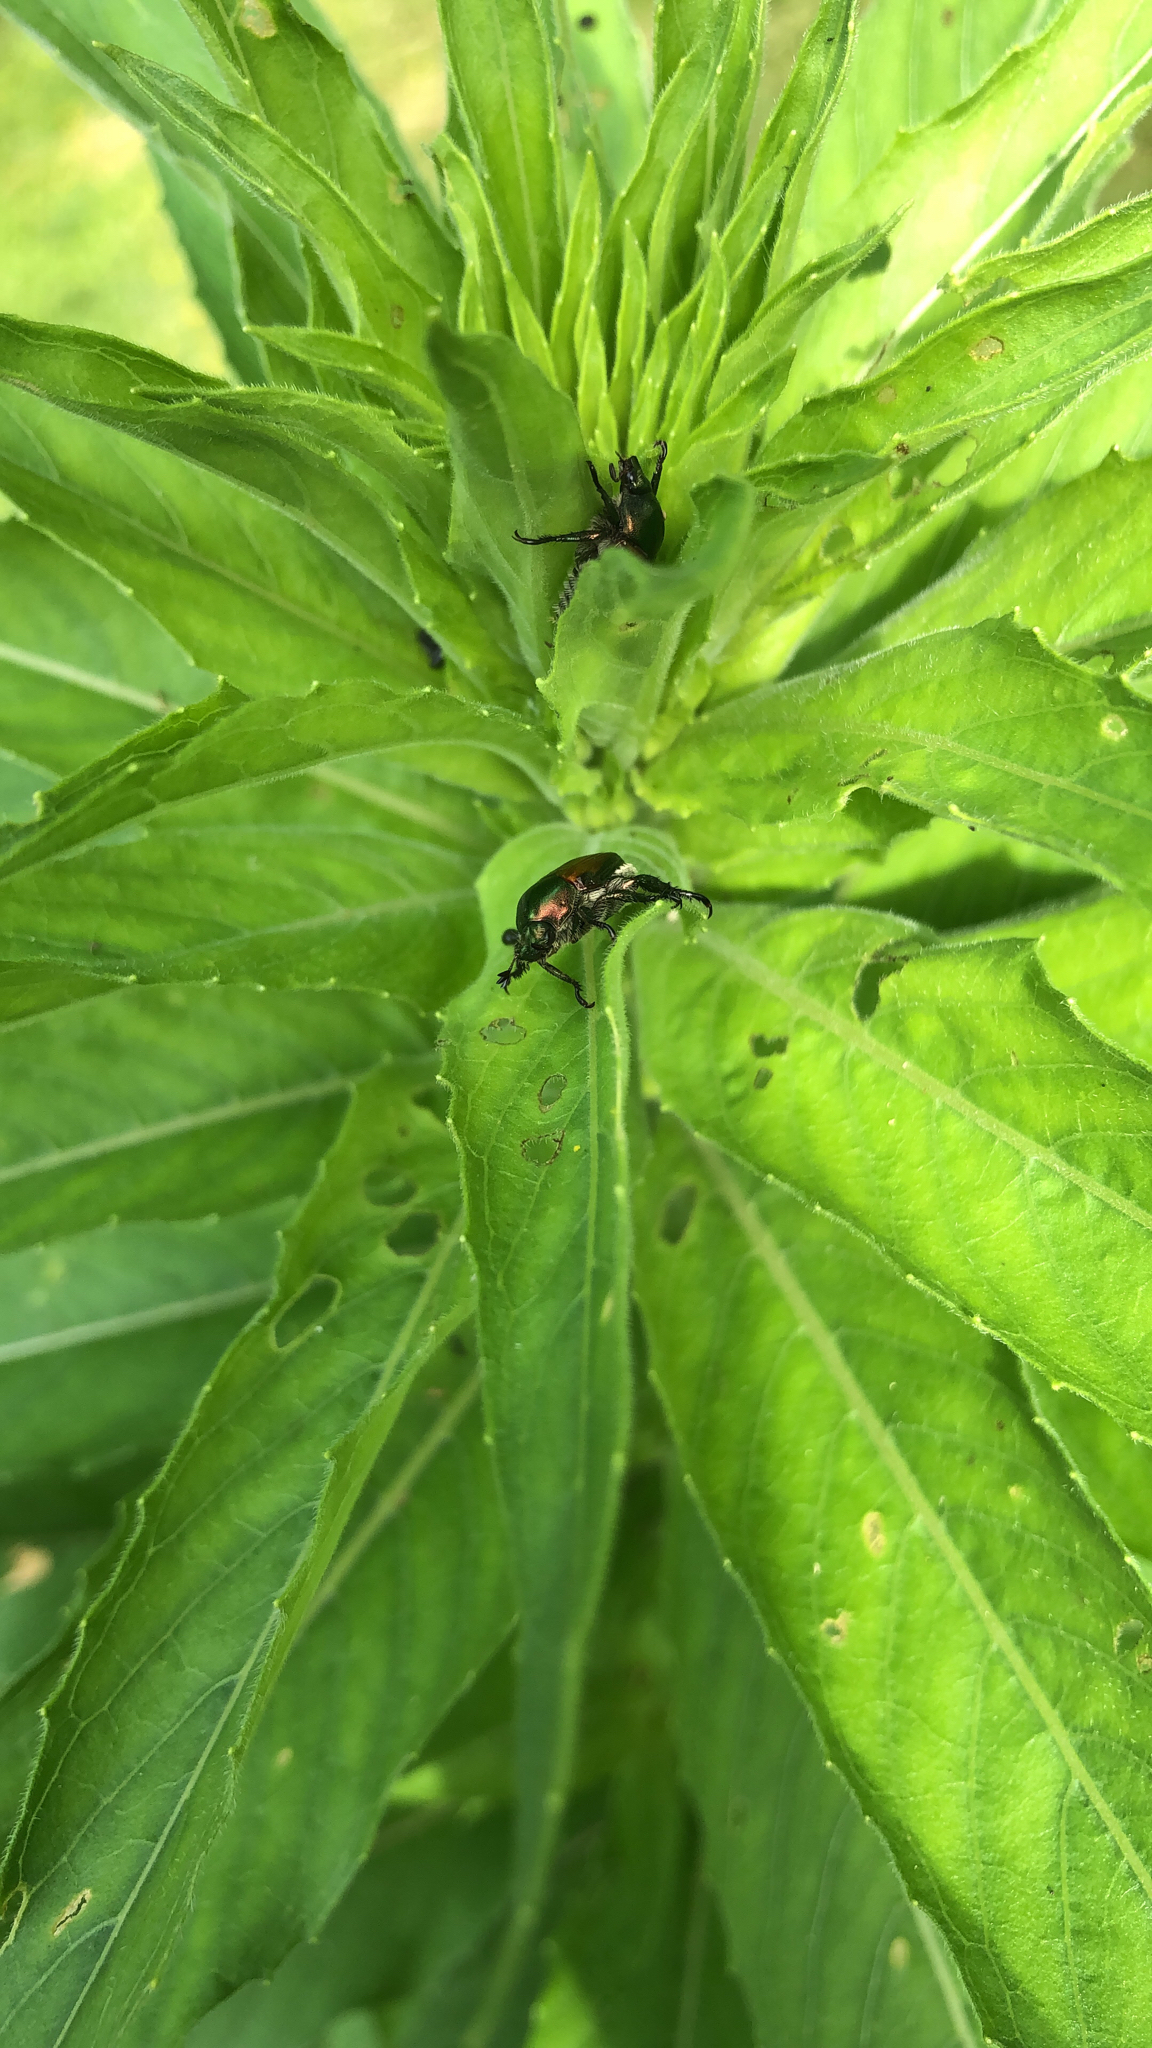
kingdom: Animalia
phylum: Arthropoda
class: Insecta
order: Coleoptera
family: Scarabaeidae
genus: Popillia
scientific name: Popillia japonica
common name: Japanese beetle
